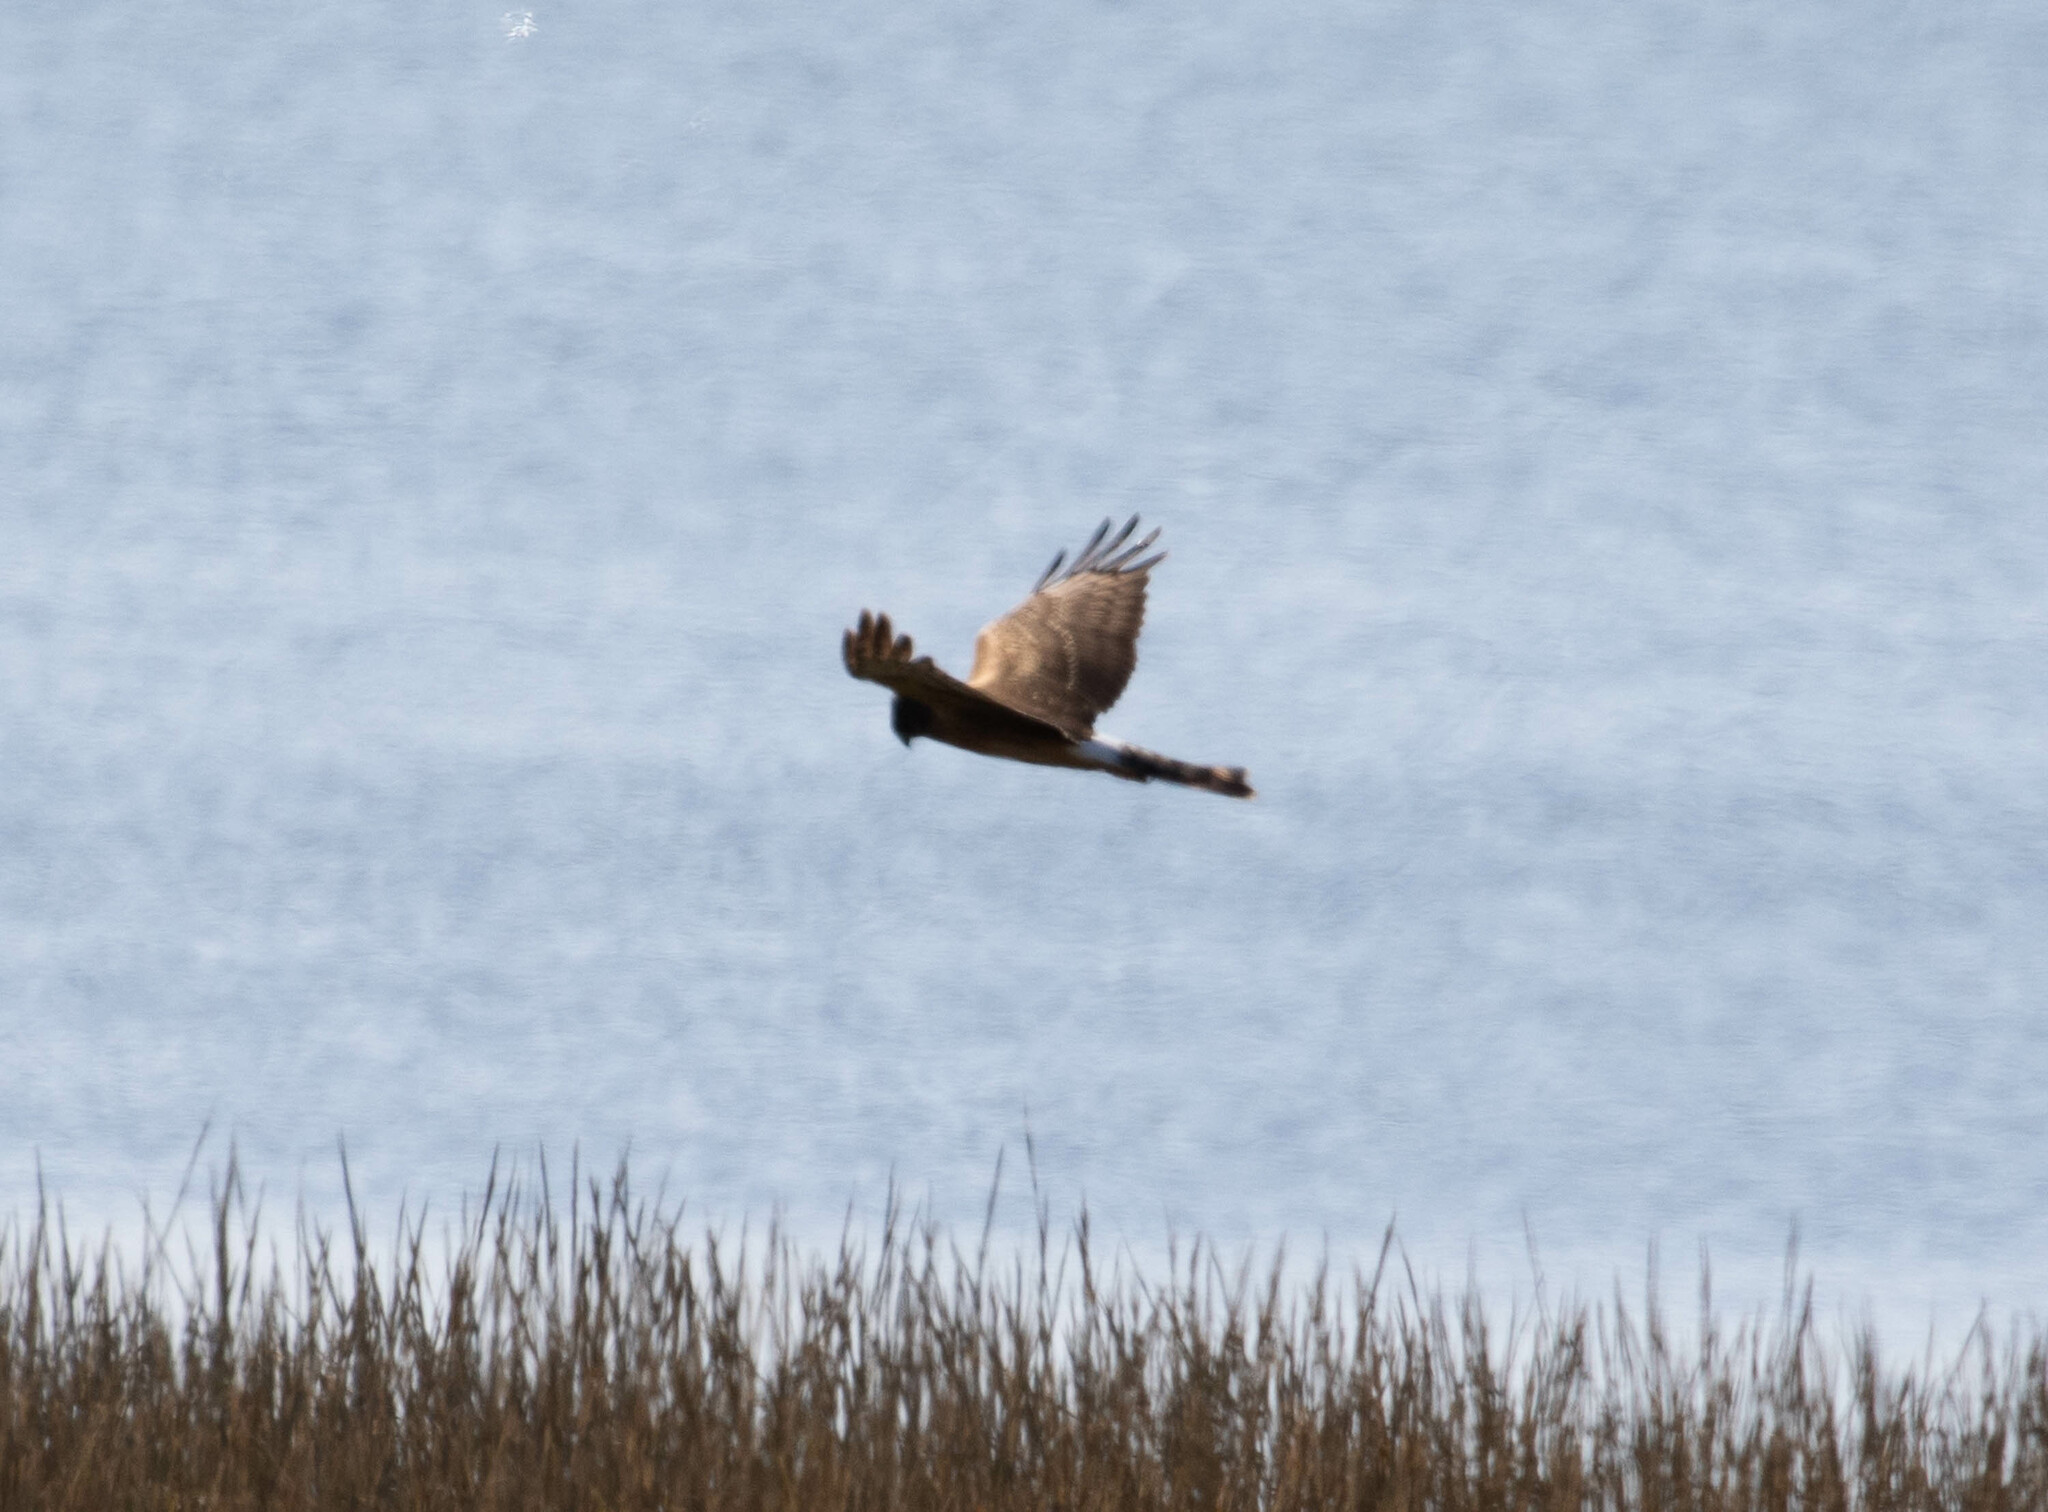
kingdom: Animalia
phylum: Chordata
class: Aves
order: Accipitriformes
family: Accipitridae
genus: Circus
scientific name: Circus cyaneus
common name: Hen harrier
